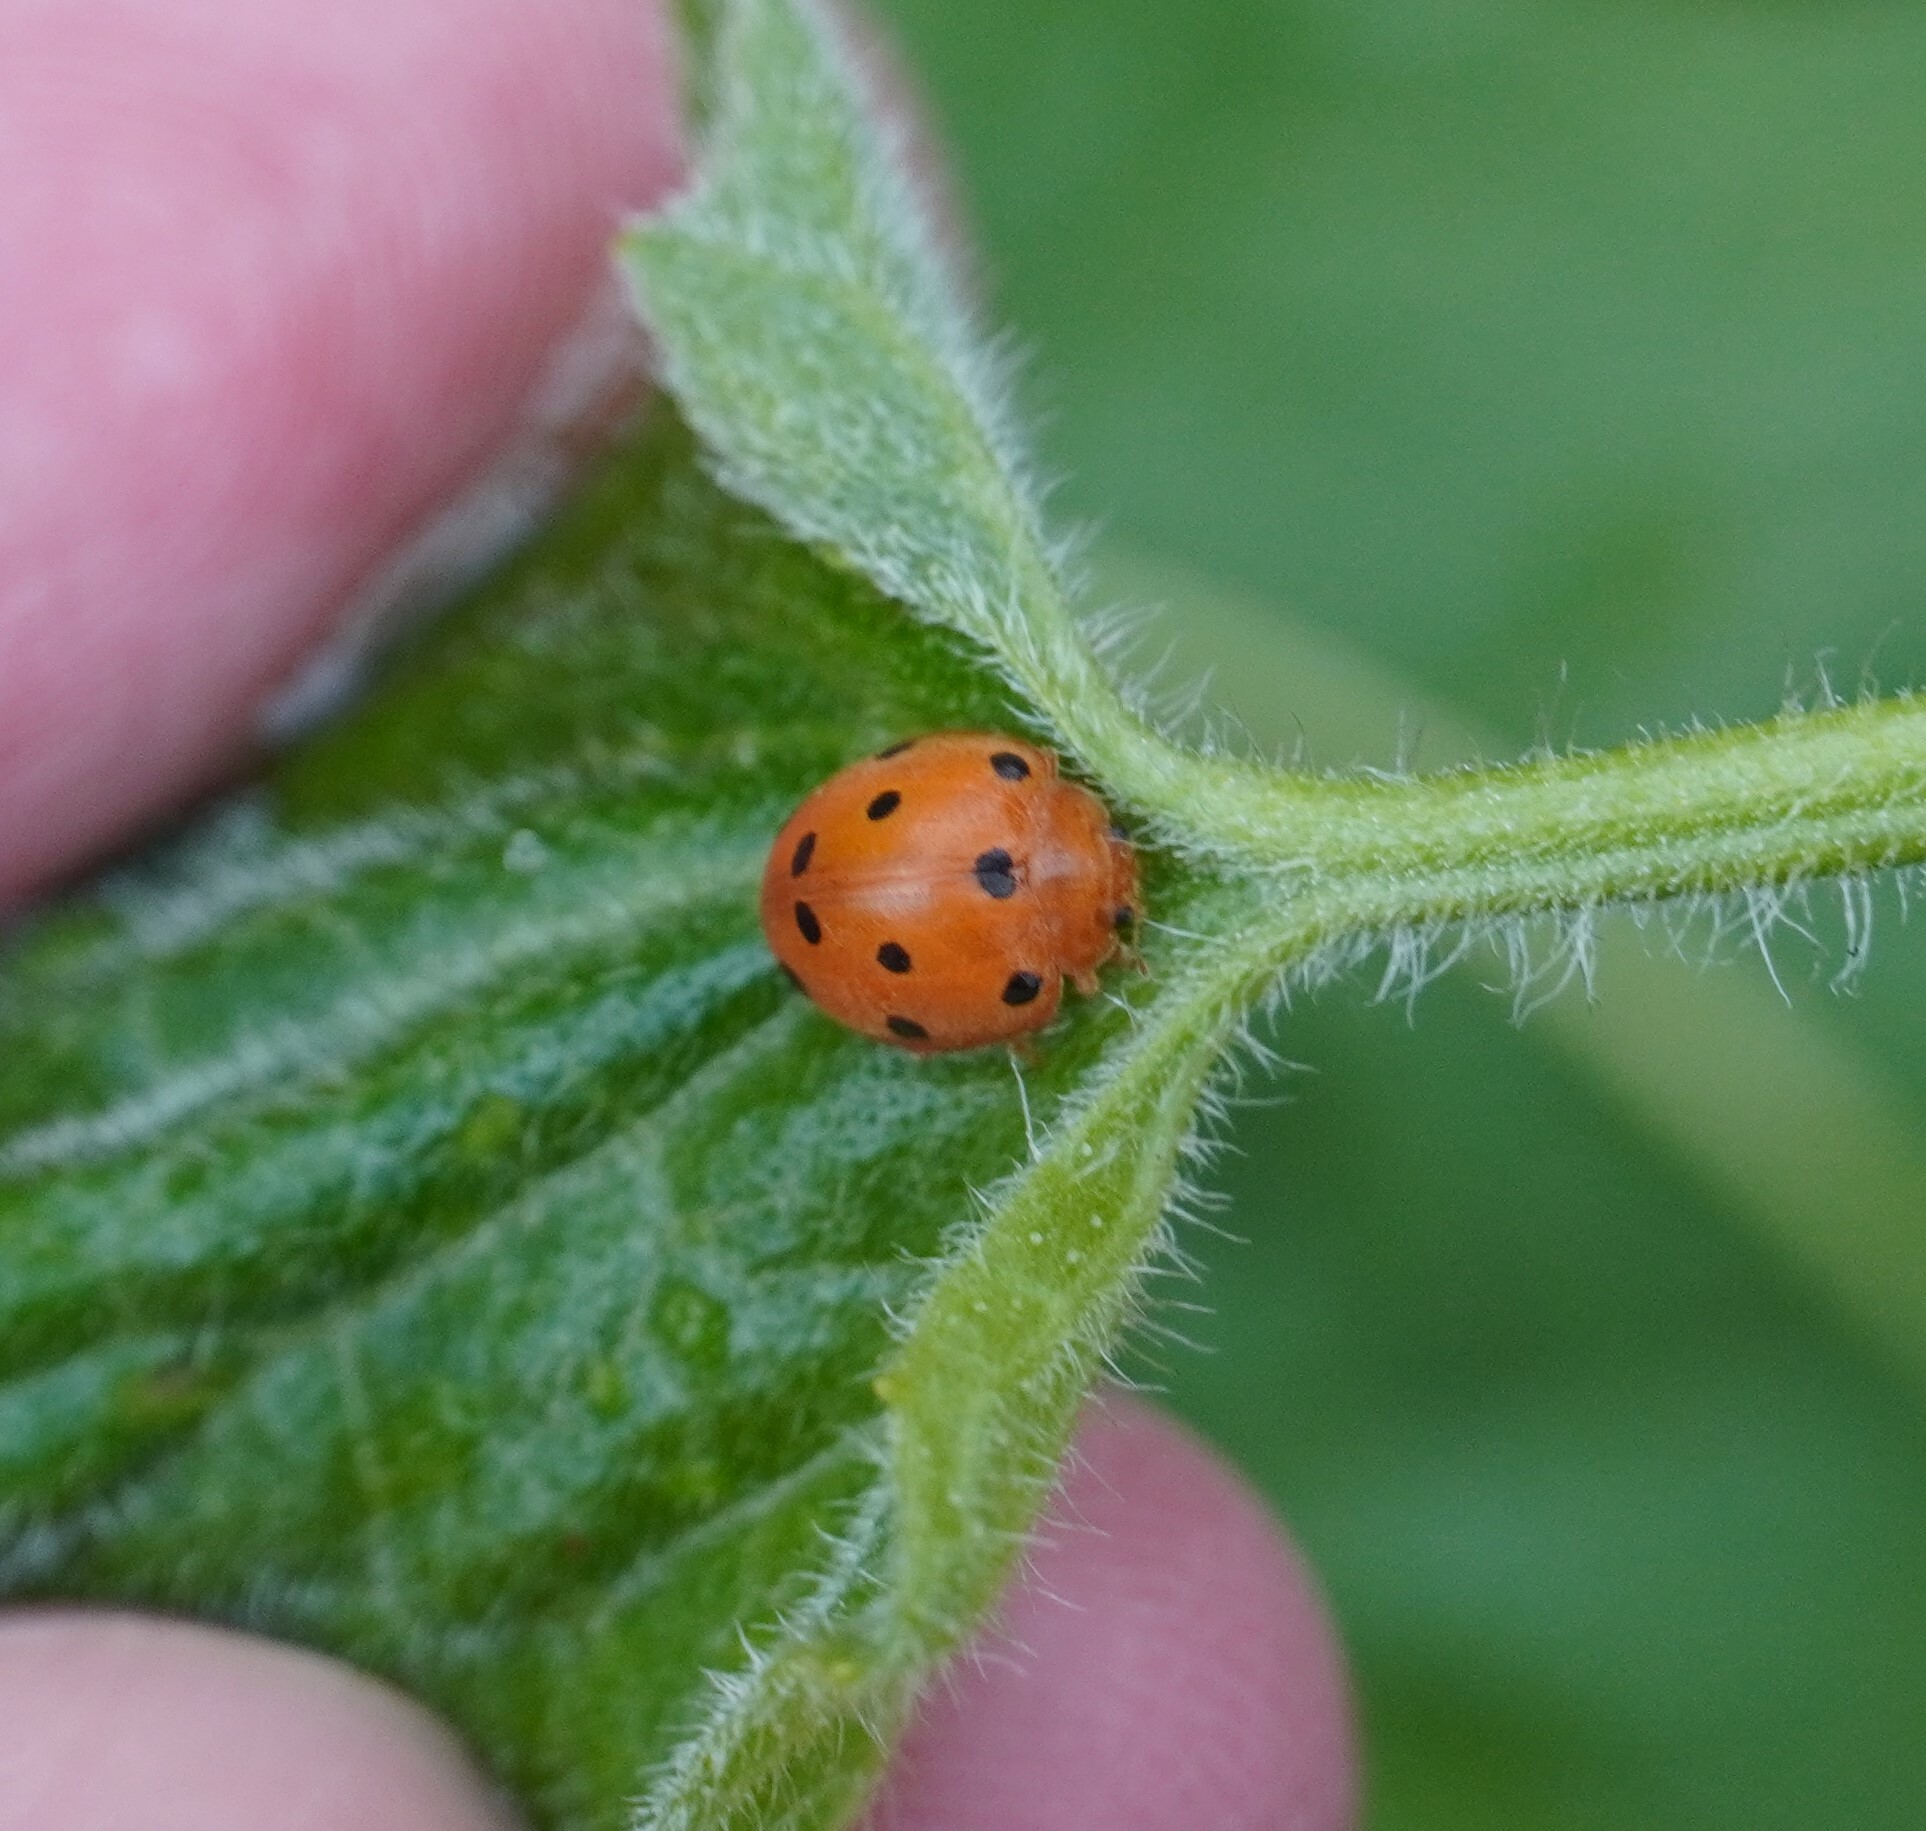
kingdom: Animalia
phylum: Arthropoda
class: Insecta
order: Coleoptera
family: Coccinellidae
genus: Henosepilachna
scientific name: Henosepilachna argus
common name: Bryony ladybird
